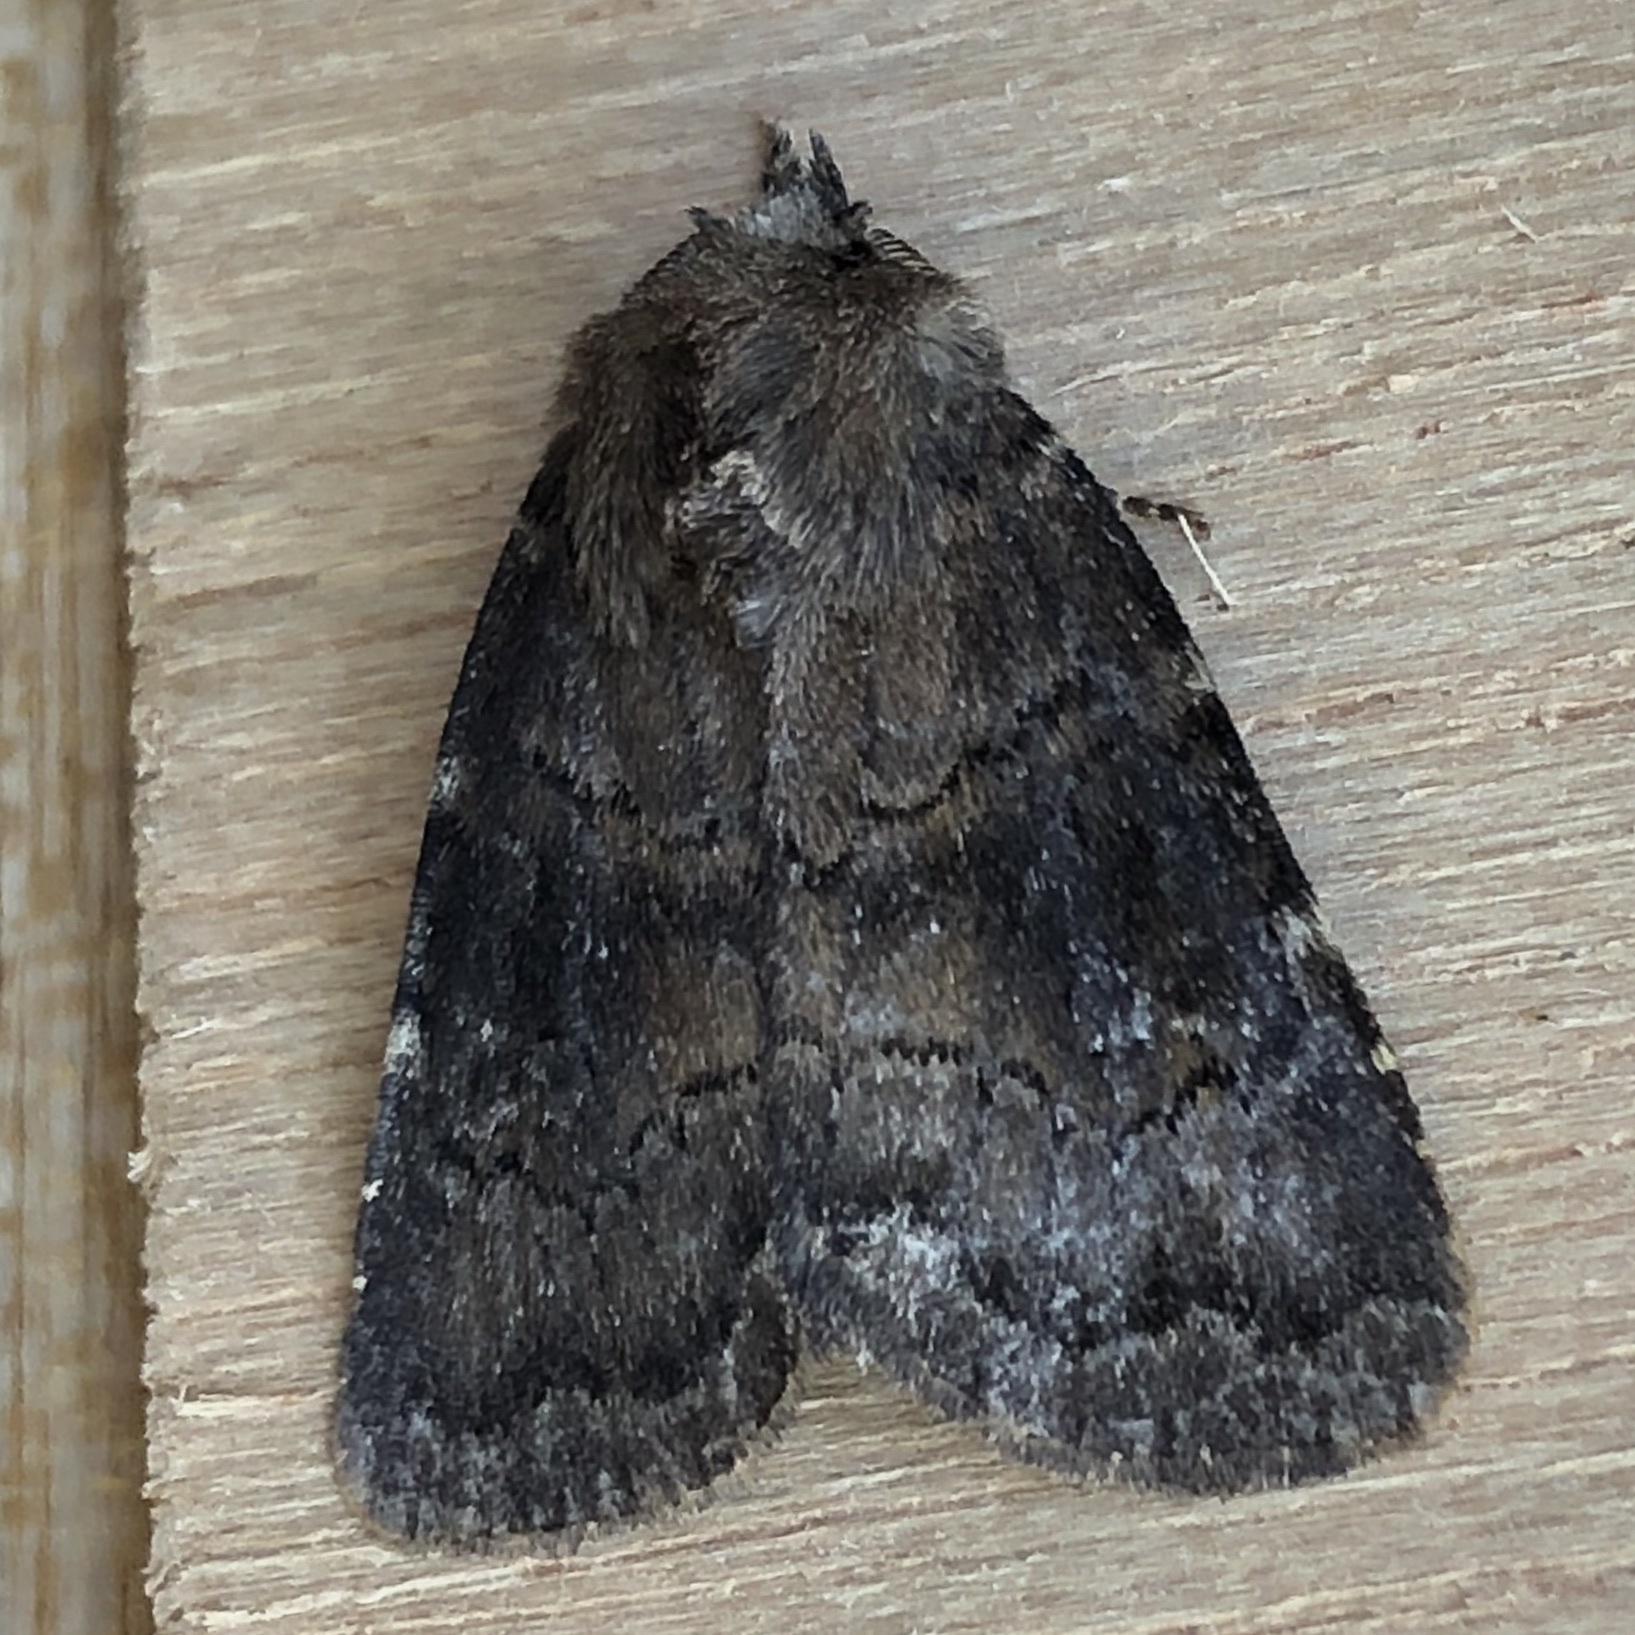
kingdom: Animalia
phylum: Arthropoda
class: Insecta
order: Lepidoptera
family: Noctuidae
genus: Charanyca
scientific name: Charanyca ferruginea
